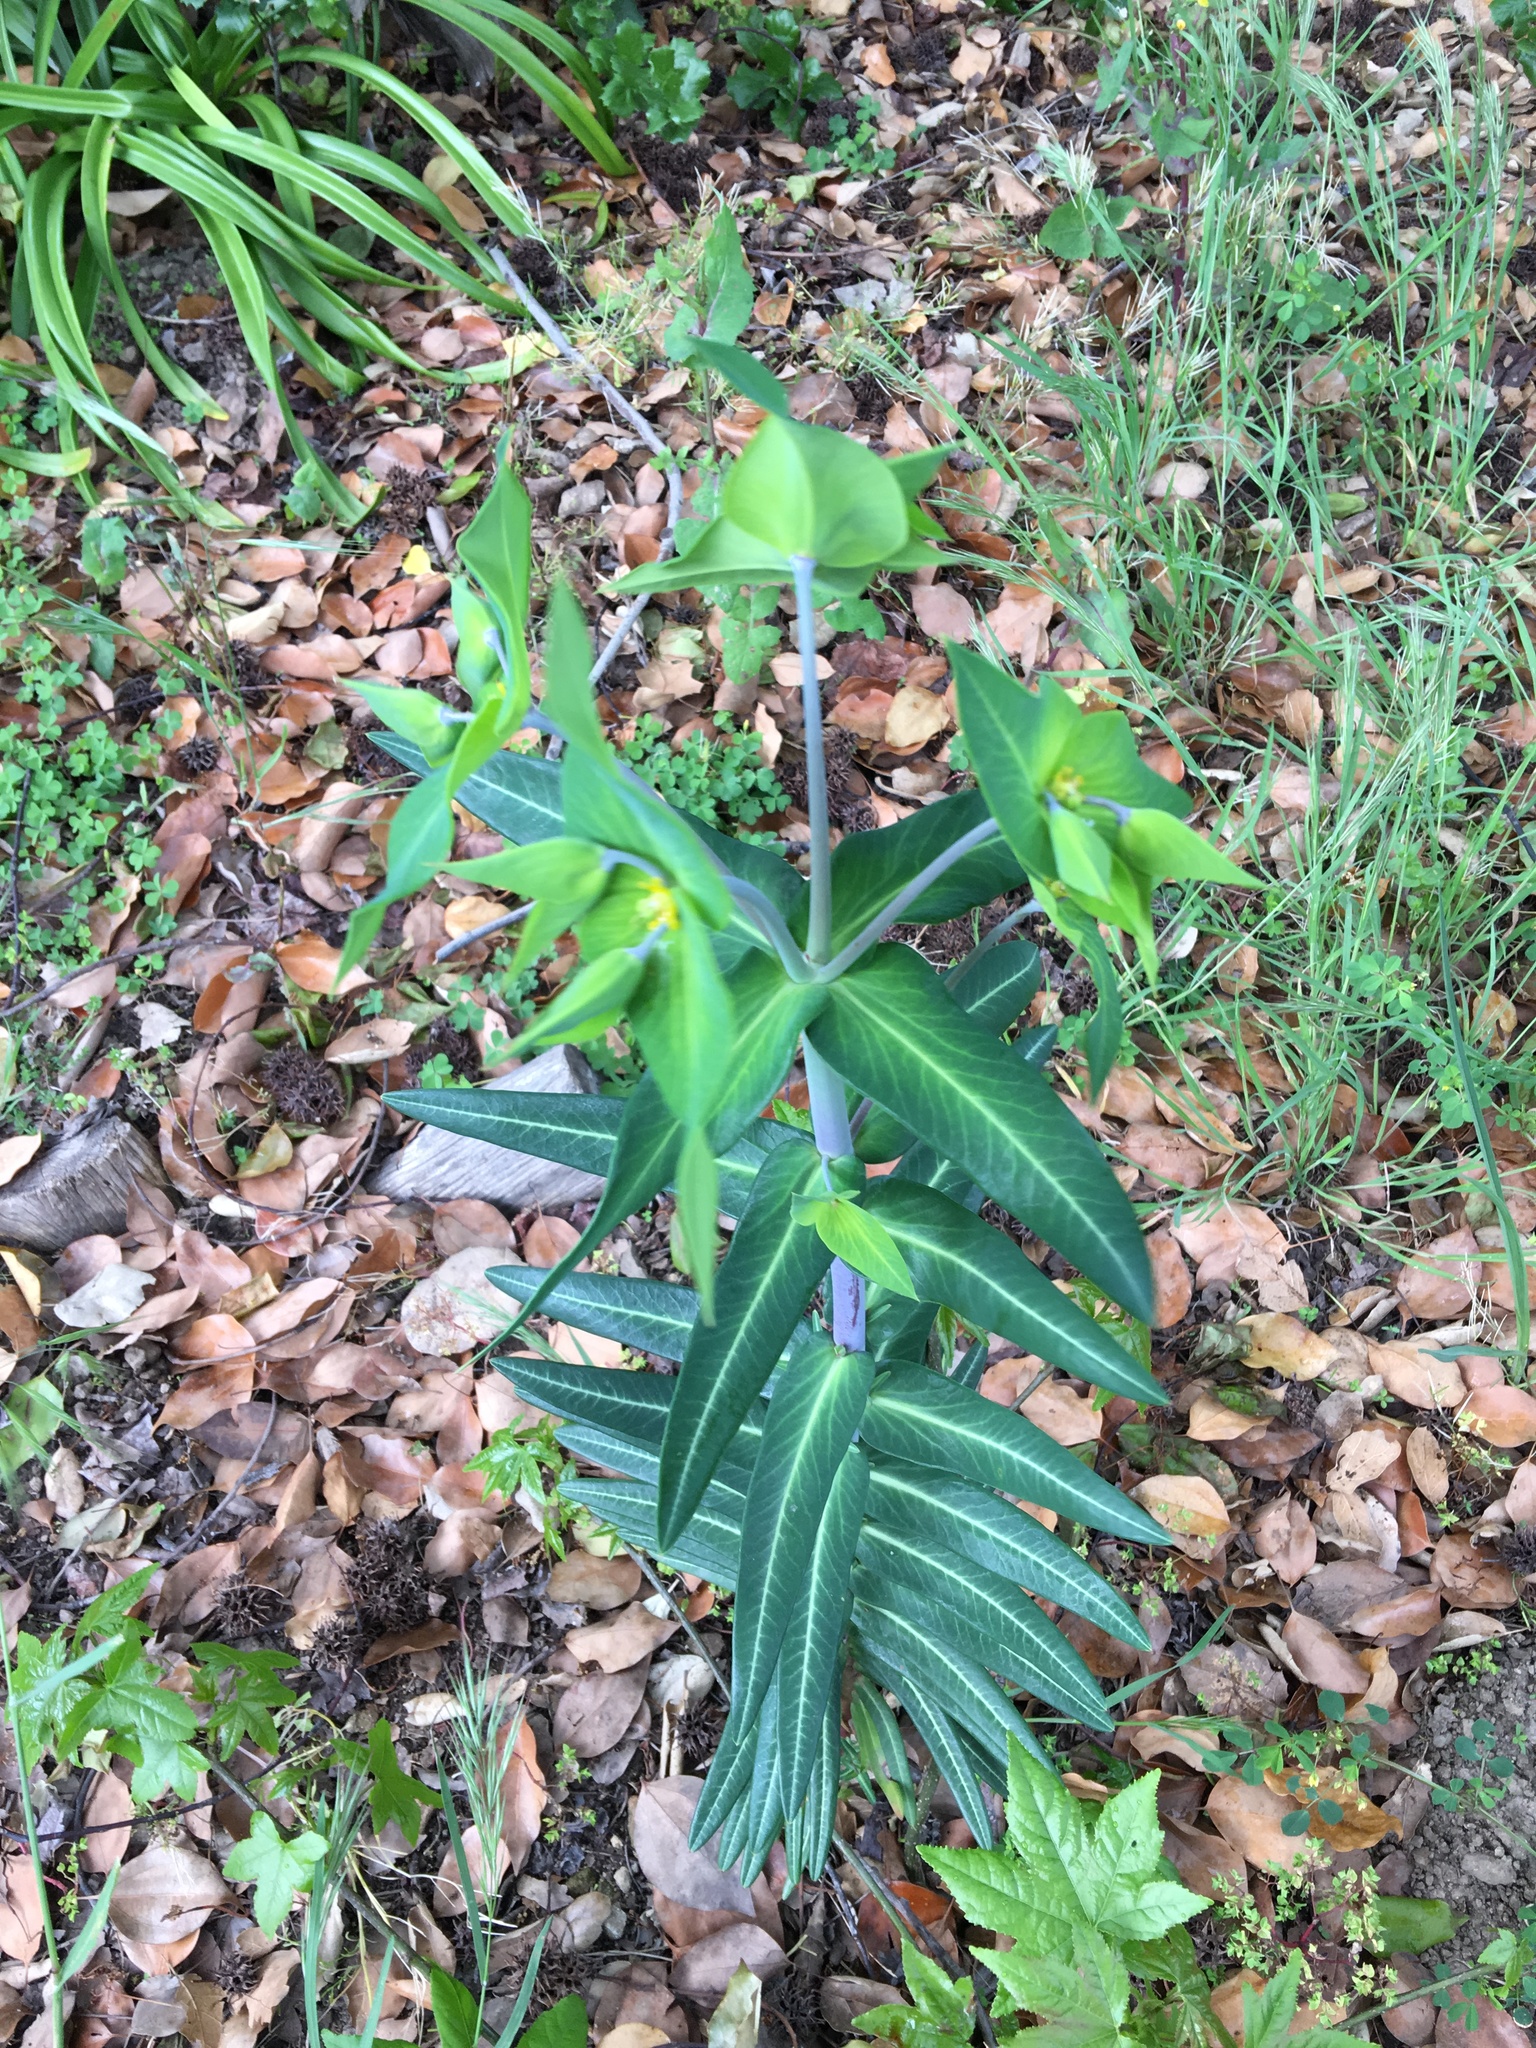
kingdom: Plantae
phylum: Tracheophyta
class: Magnoliopsida
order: Malpighiales
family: Euphorbiaceae
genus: Euphorbia
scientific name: Euphorbia lathyris
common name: Caper spurge
